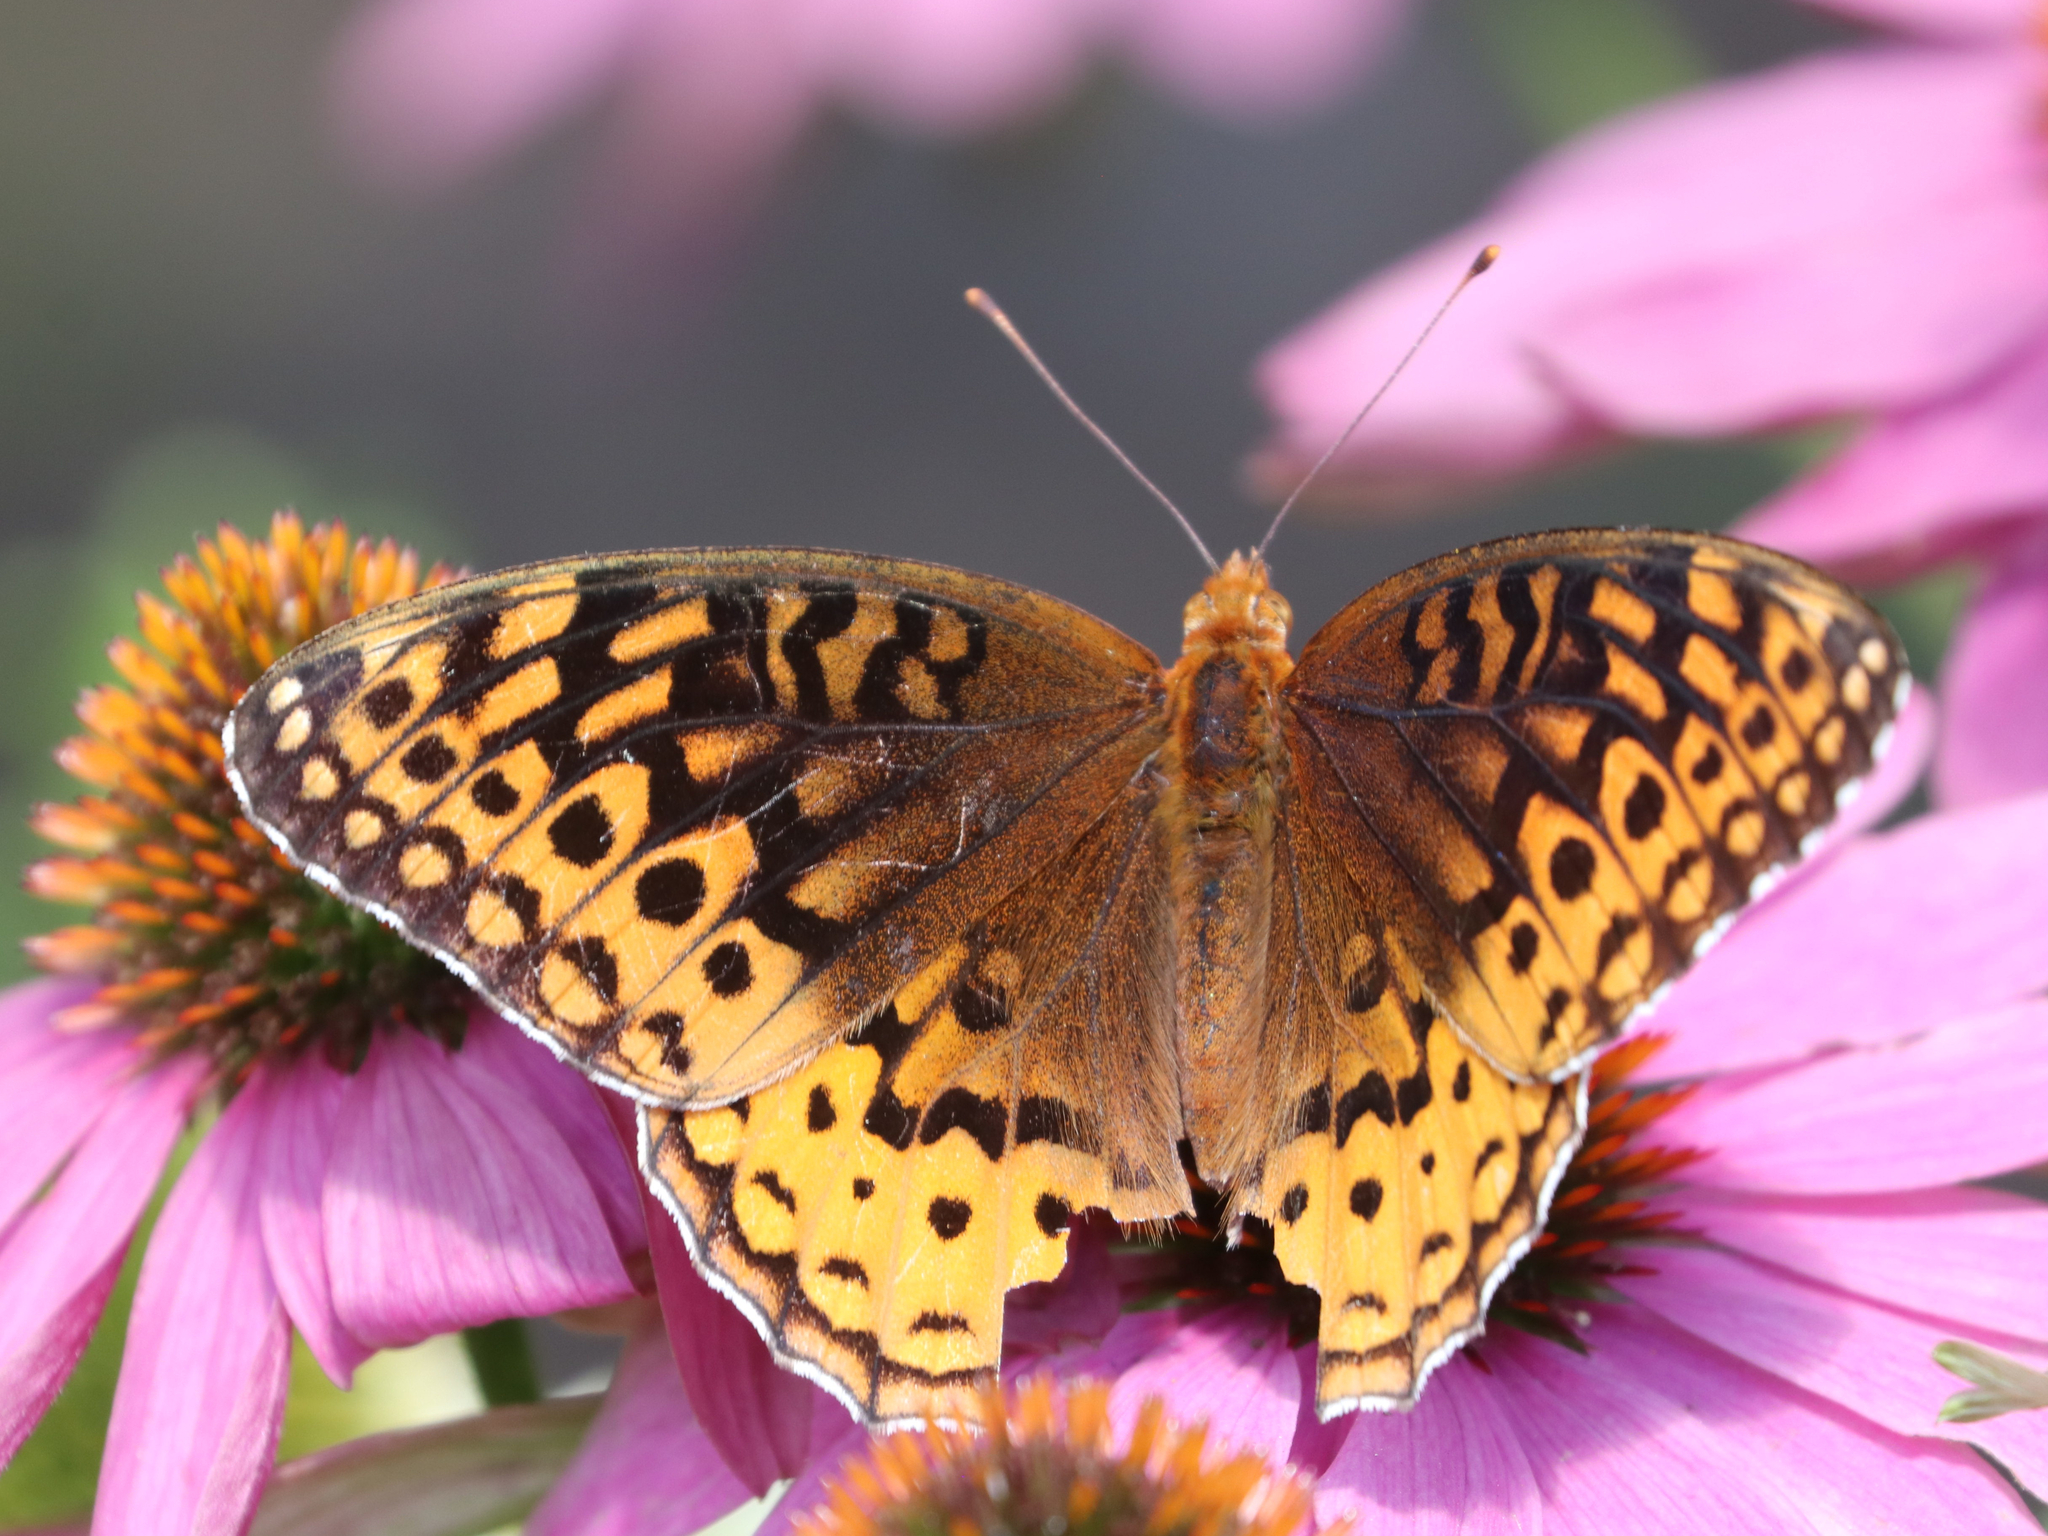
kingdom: Animalia
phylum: Arthropoda
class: Insecta
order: Lepidoptera
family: Nymphalidae
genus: Speyeria
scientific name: Speyeria cybele
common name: Great spangled fritillary
